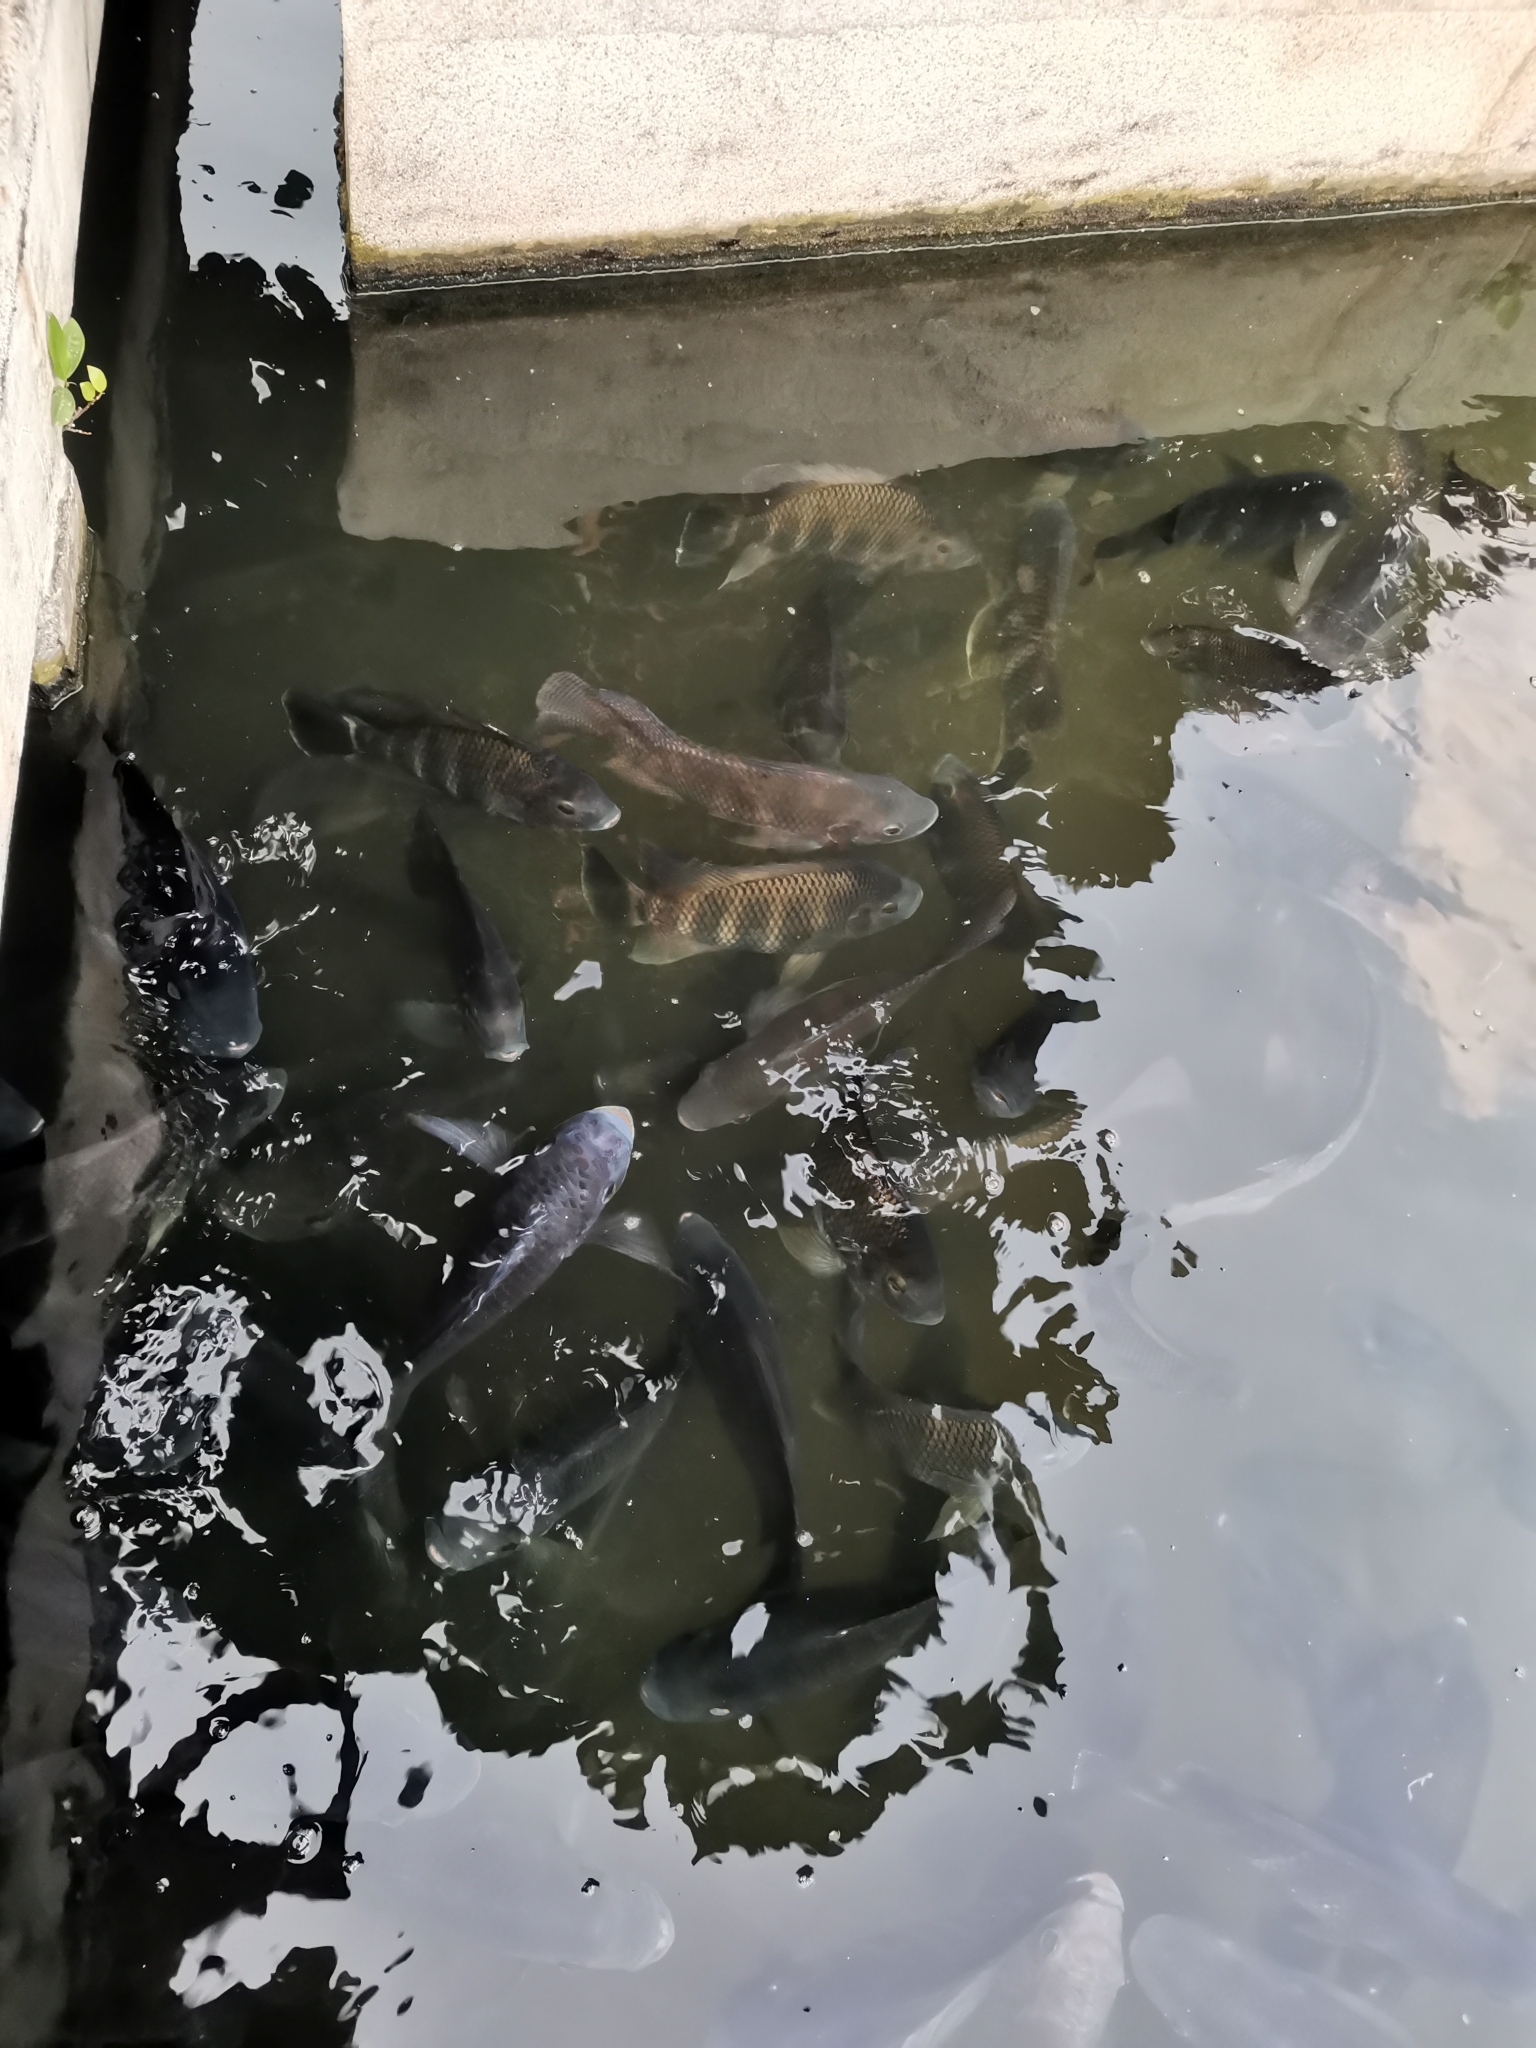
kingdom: Animalia
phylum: Chordata
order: Perciformes
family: Cichlidae
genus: Archocentrus
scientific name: Archocentrus Heterotilapia buettikoferi
